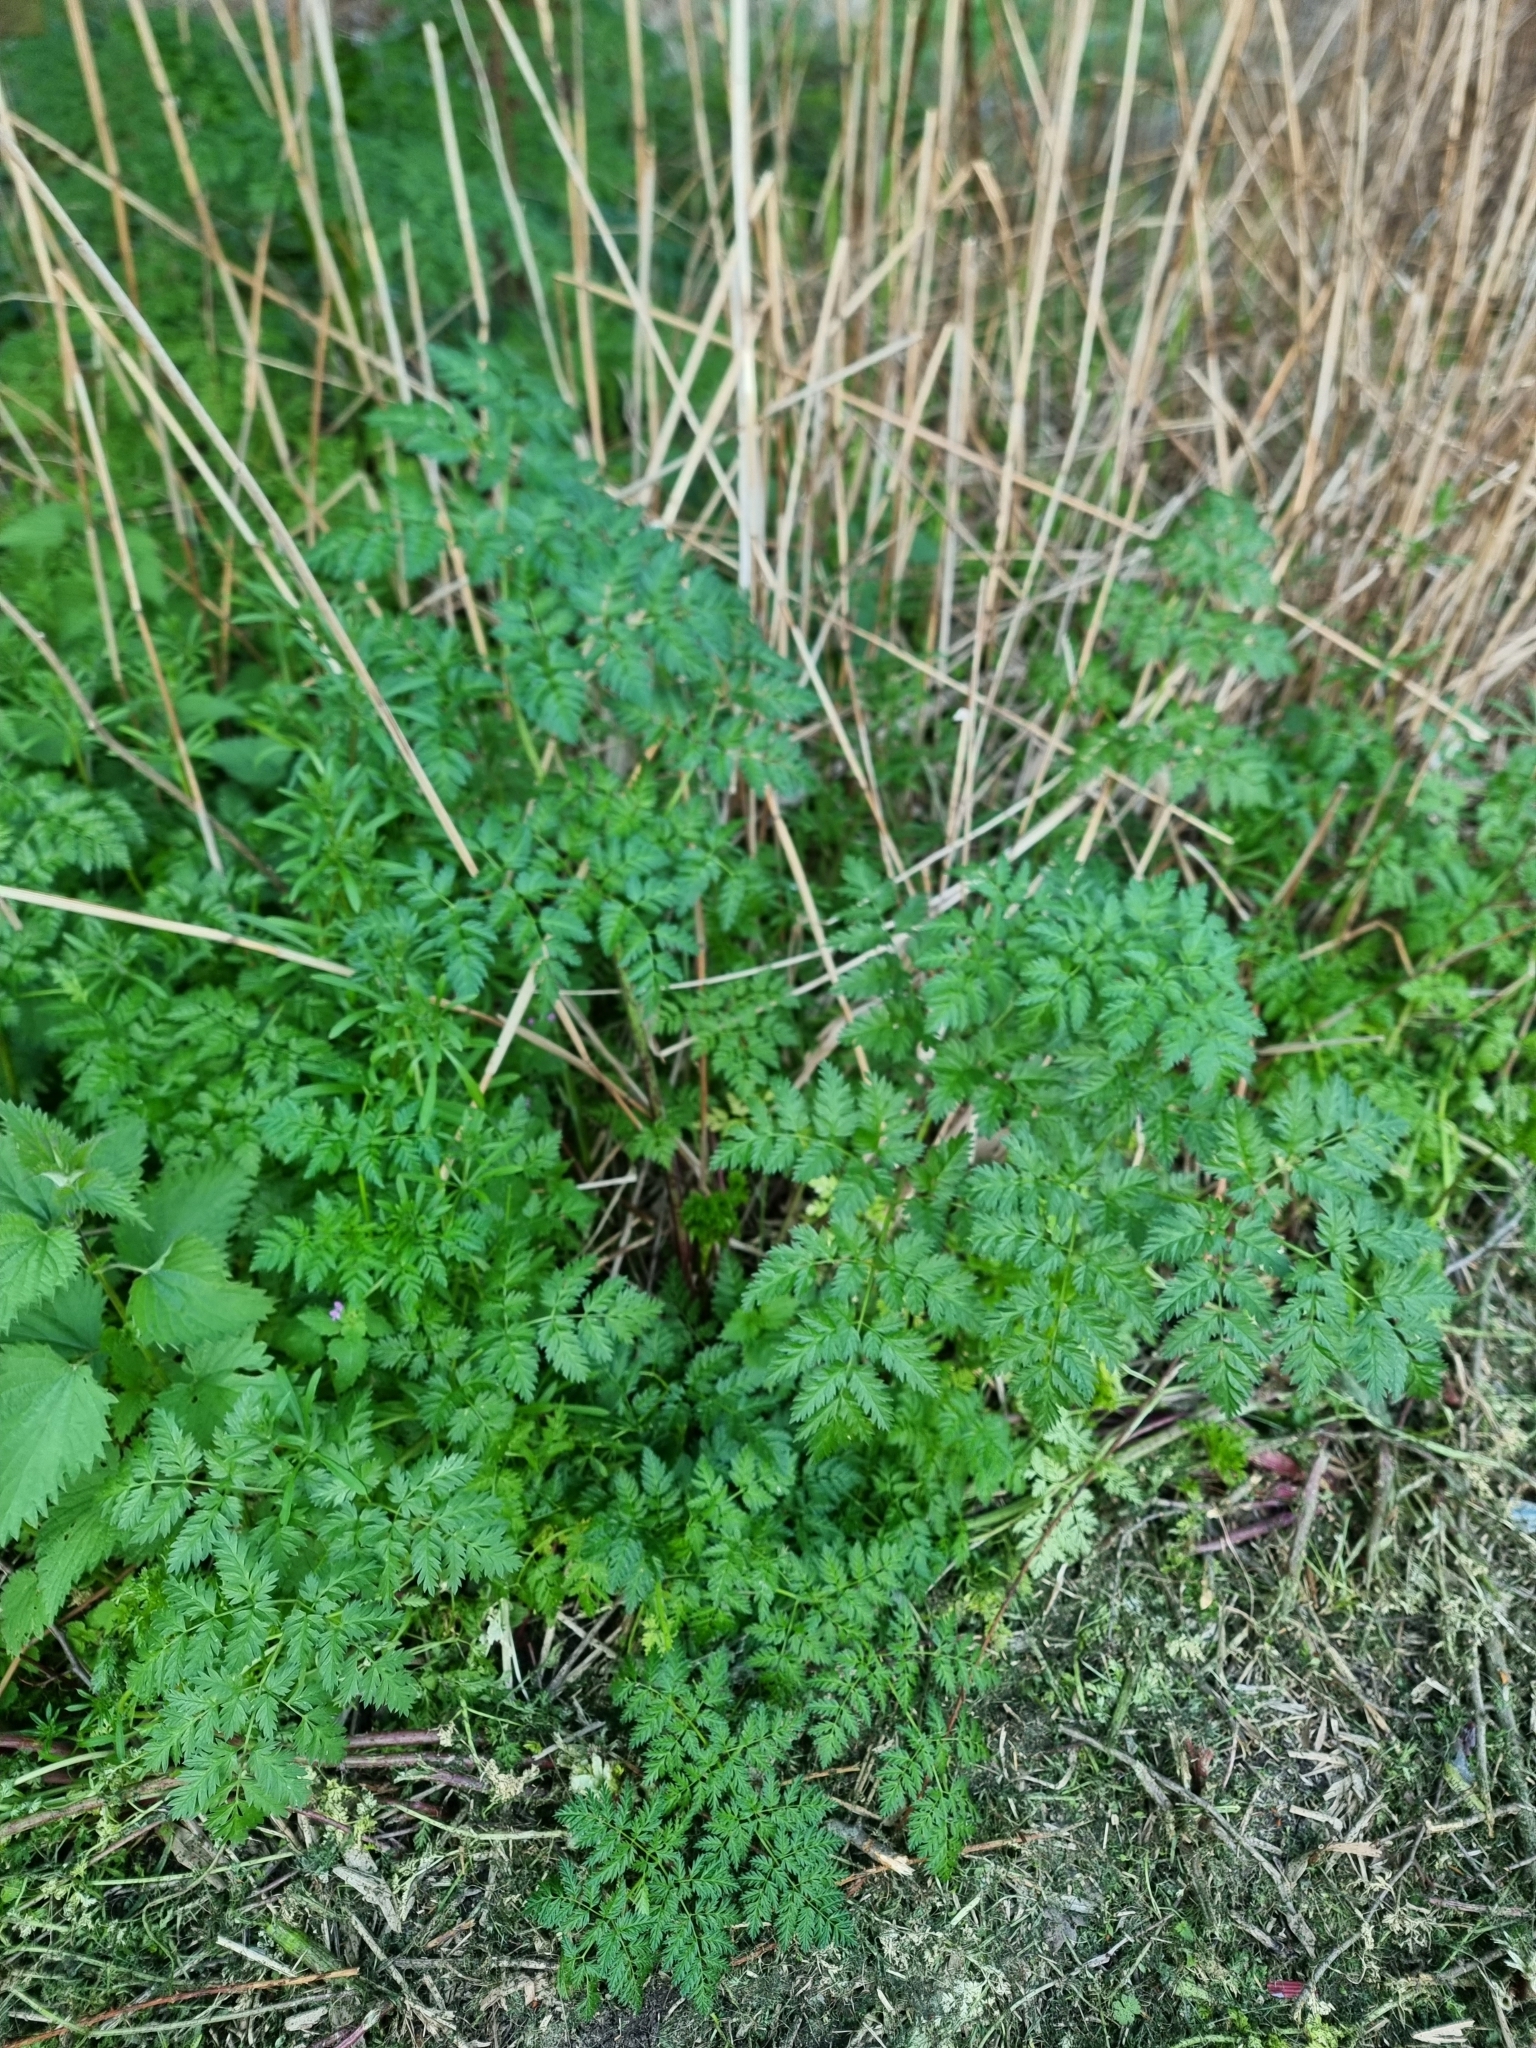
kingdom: Plantae
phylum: Tracheophyta
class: Magnoliopsida
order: Apiales
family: Apiaceae
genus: Conium
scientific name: Conium maculatum
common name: Hemlock
